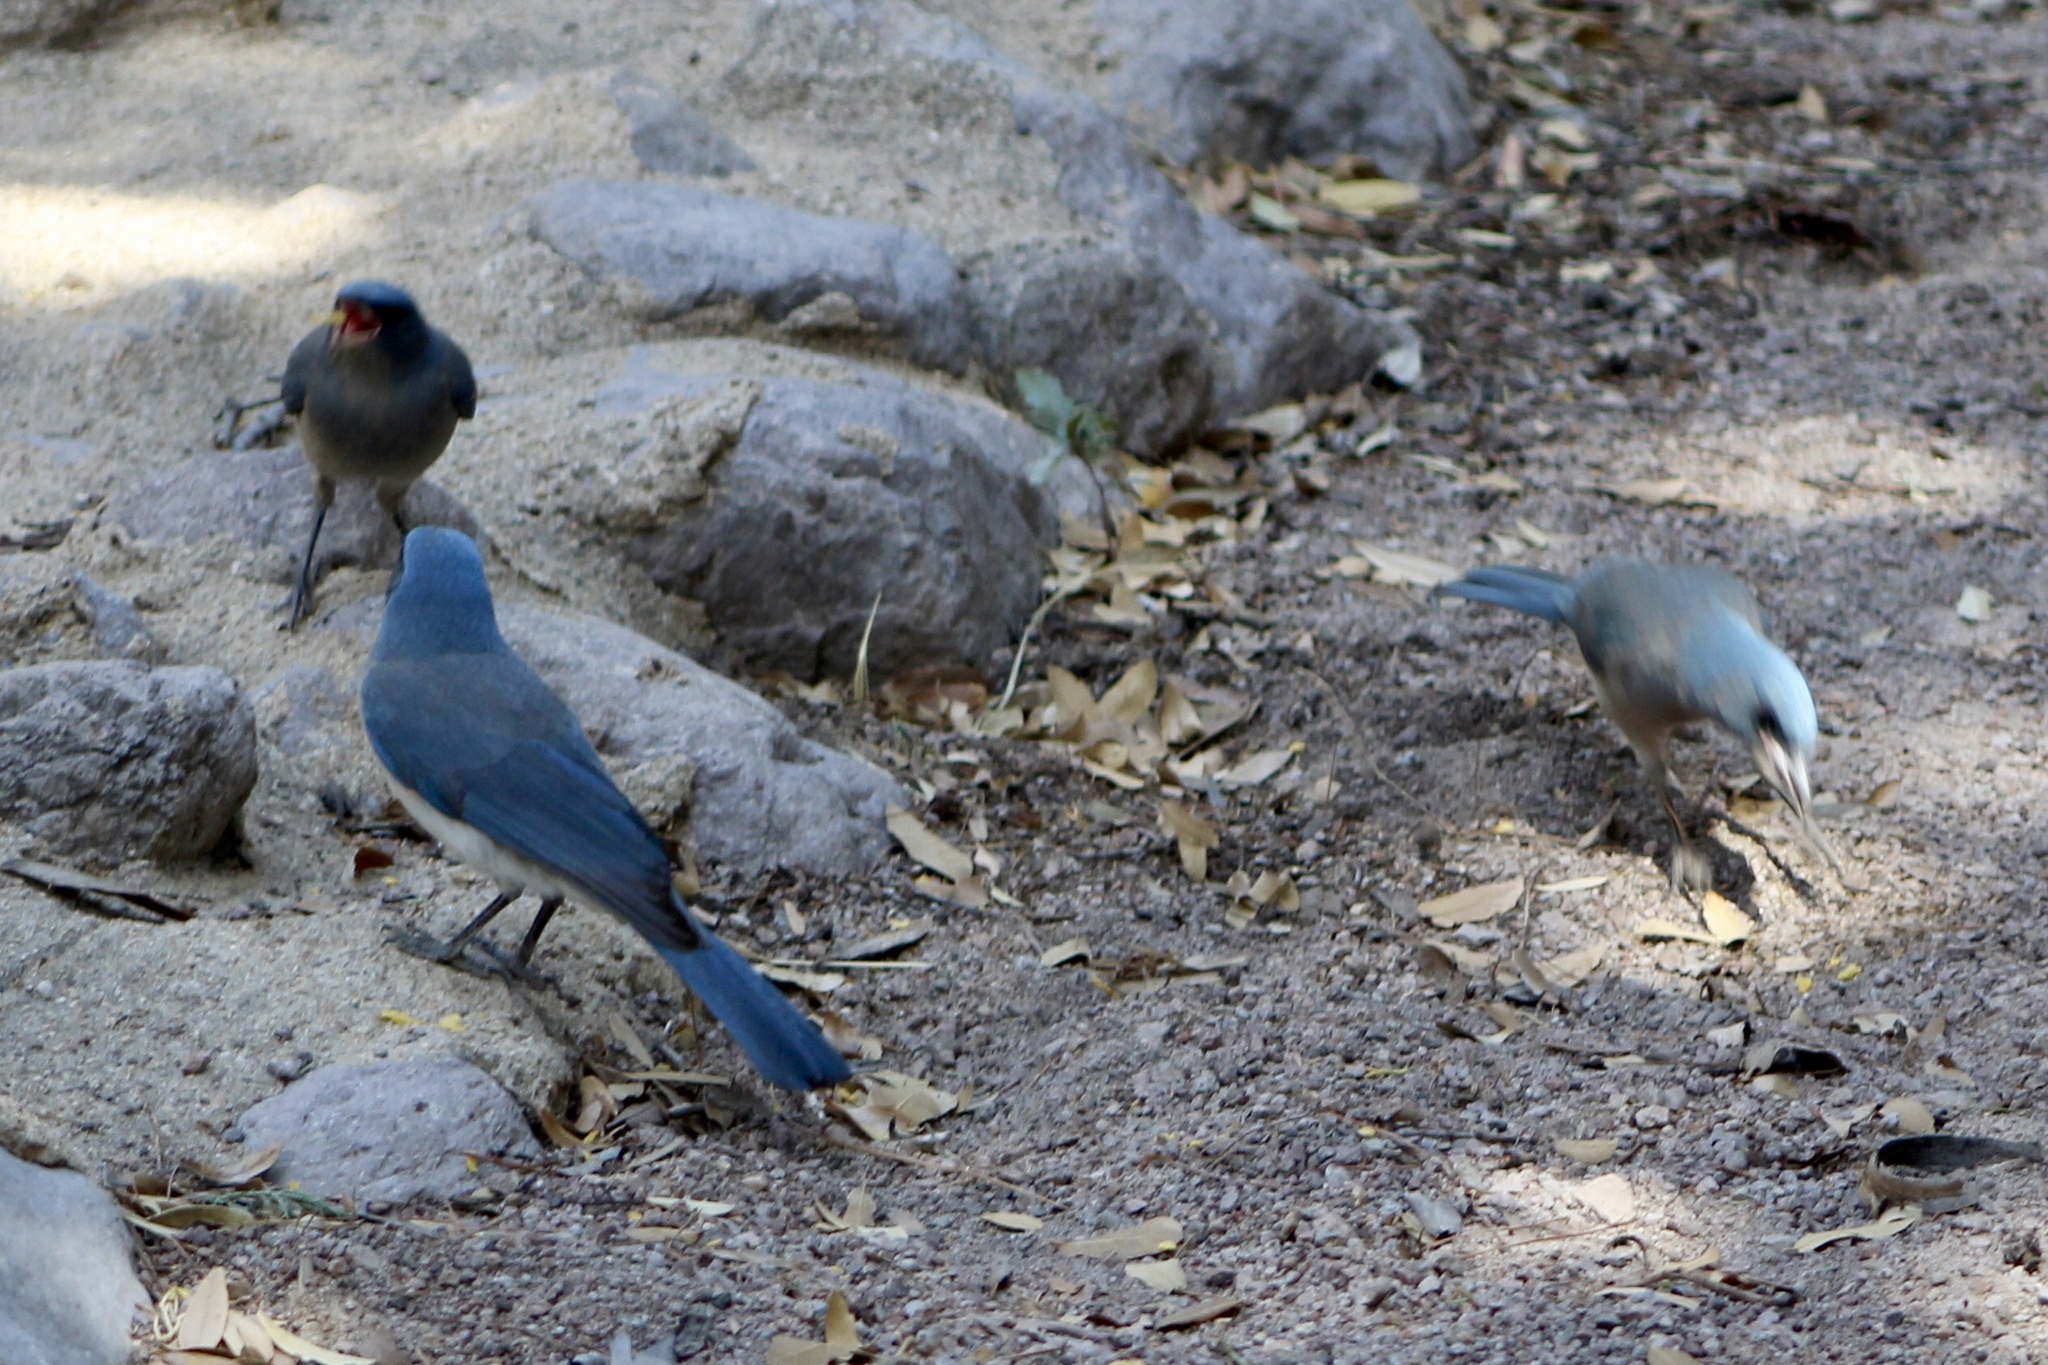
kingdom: Animalia
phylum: Chordata
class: Aves
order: Passeriformes
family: Corvidae
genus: Aphelocoma
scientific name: Aphelocoma wollweberi
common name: Mexican jay
